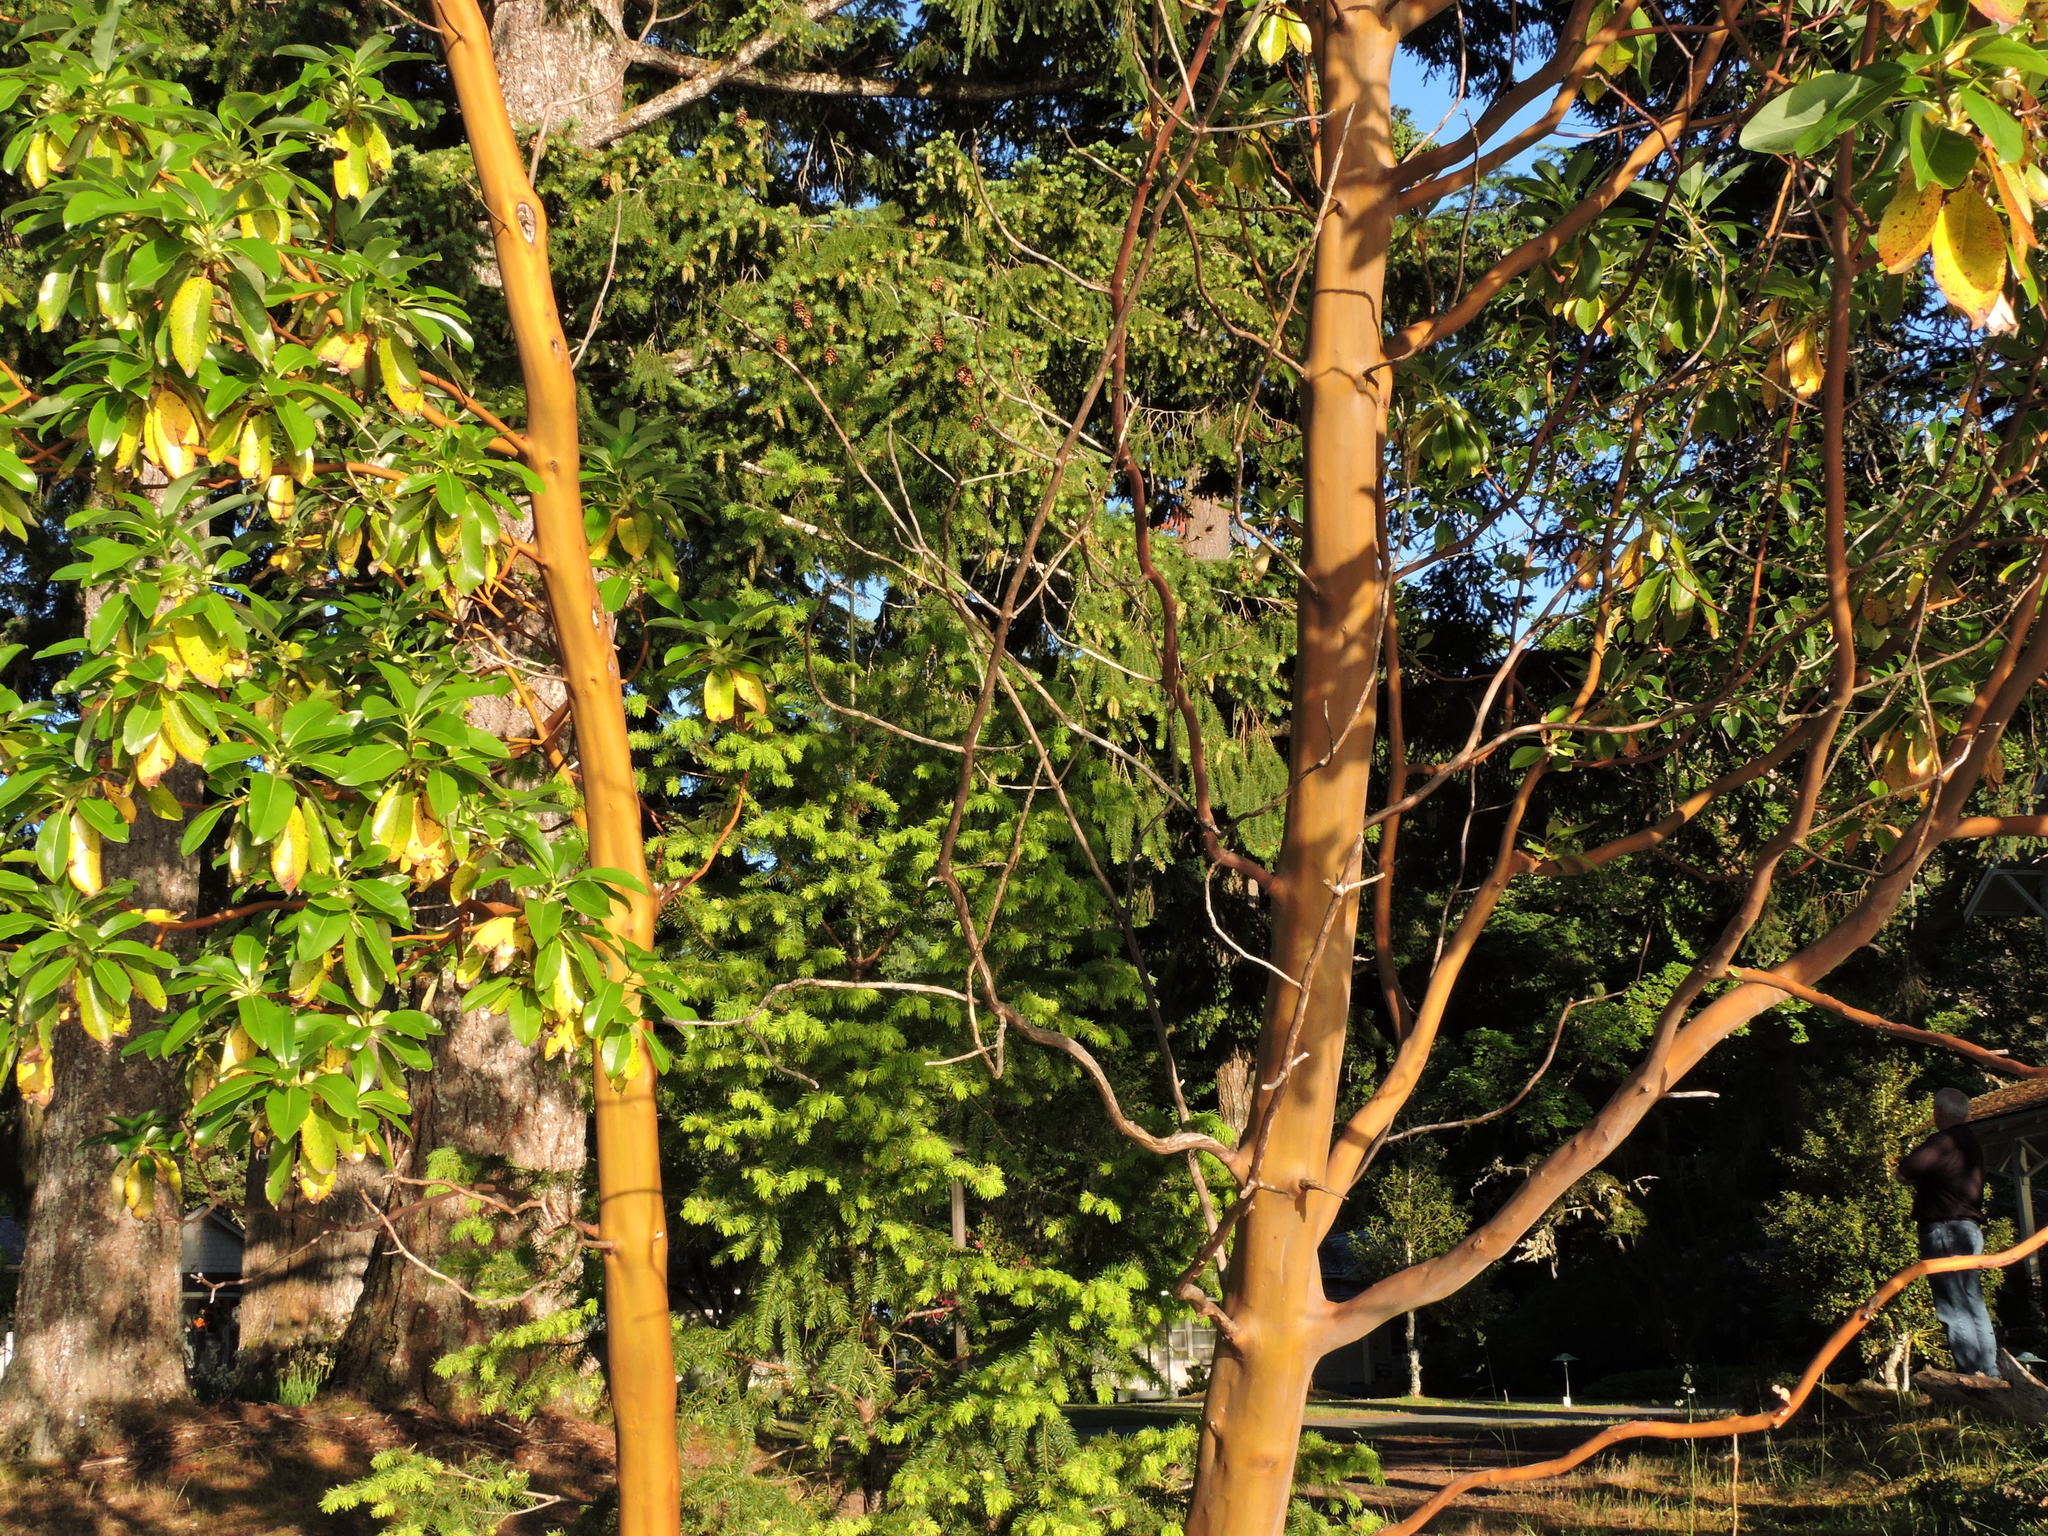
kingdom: Plantae
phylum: Tracheophyta
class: Magnoliopsida
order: Ericales
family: Ericaceae
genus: Arbutus
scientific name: Arbutus menziesii
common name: Pacific madrone
